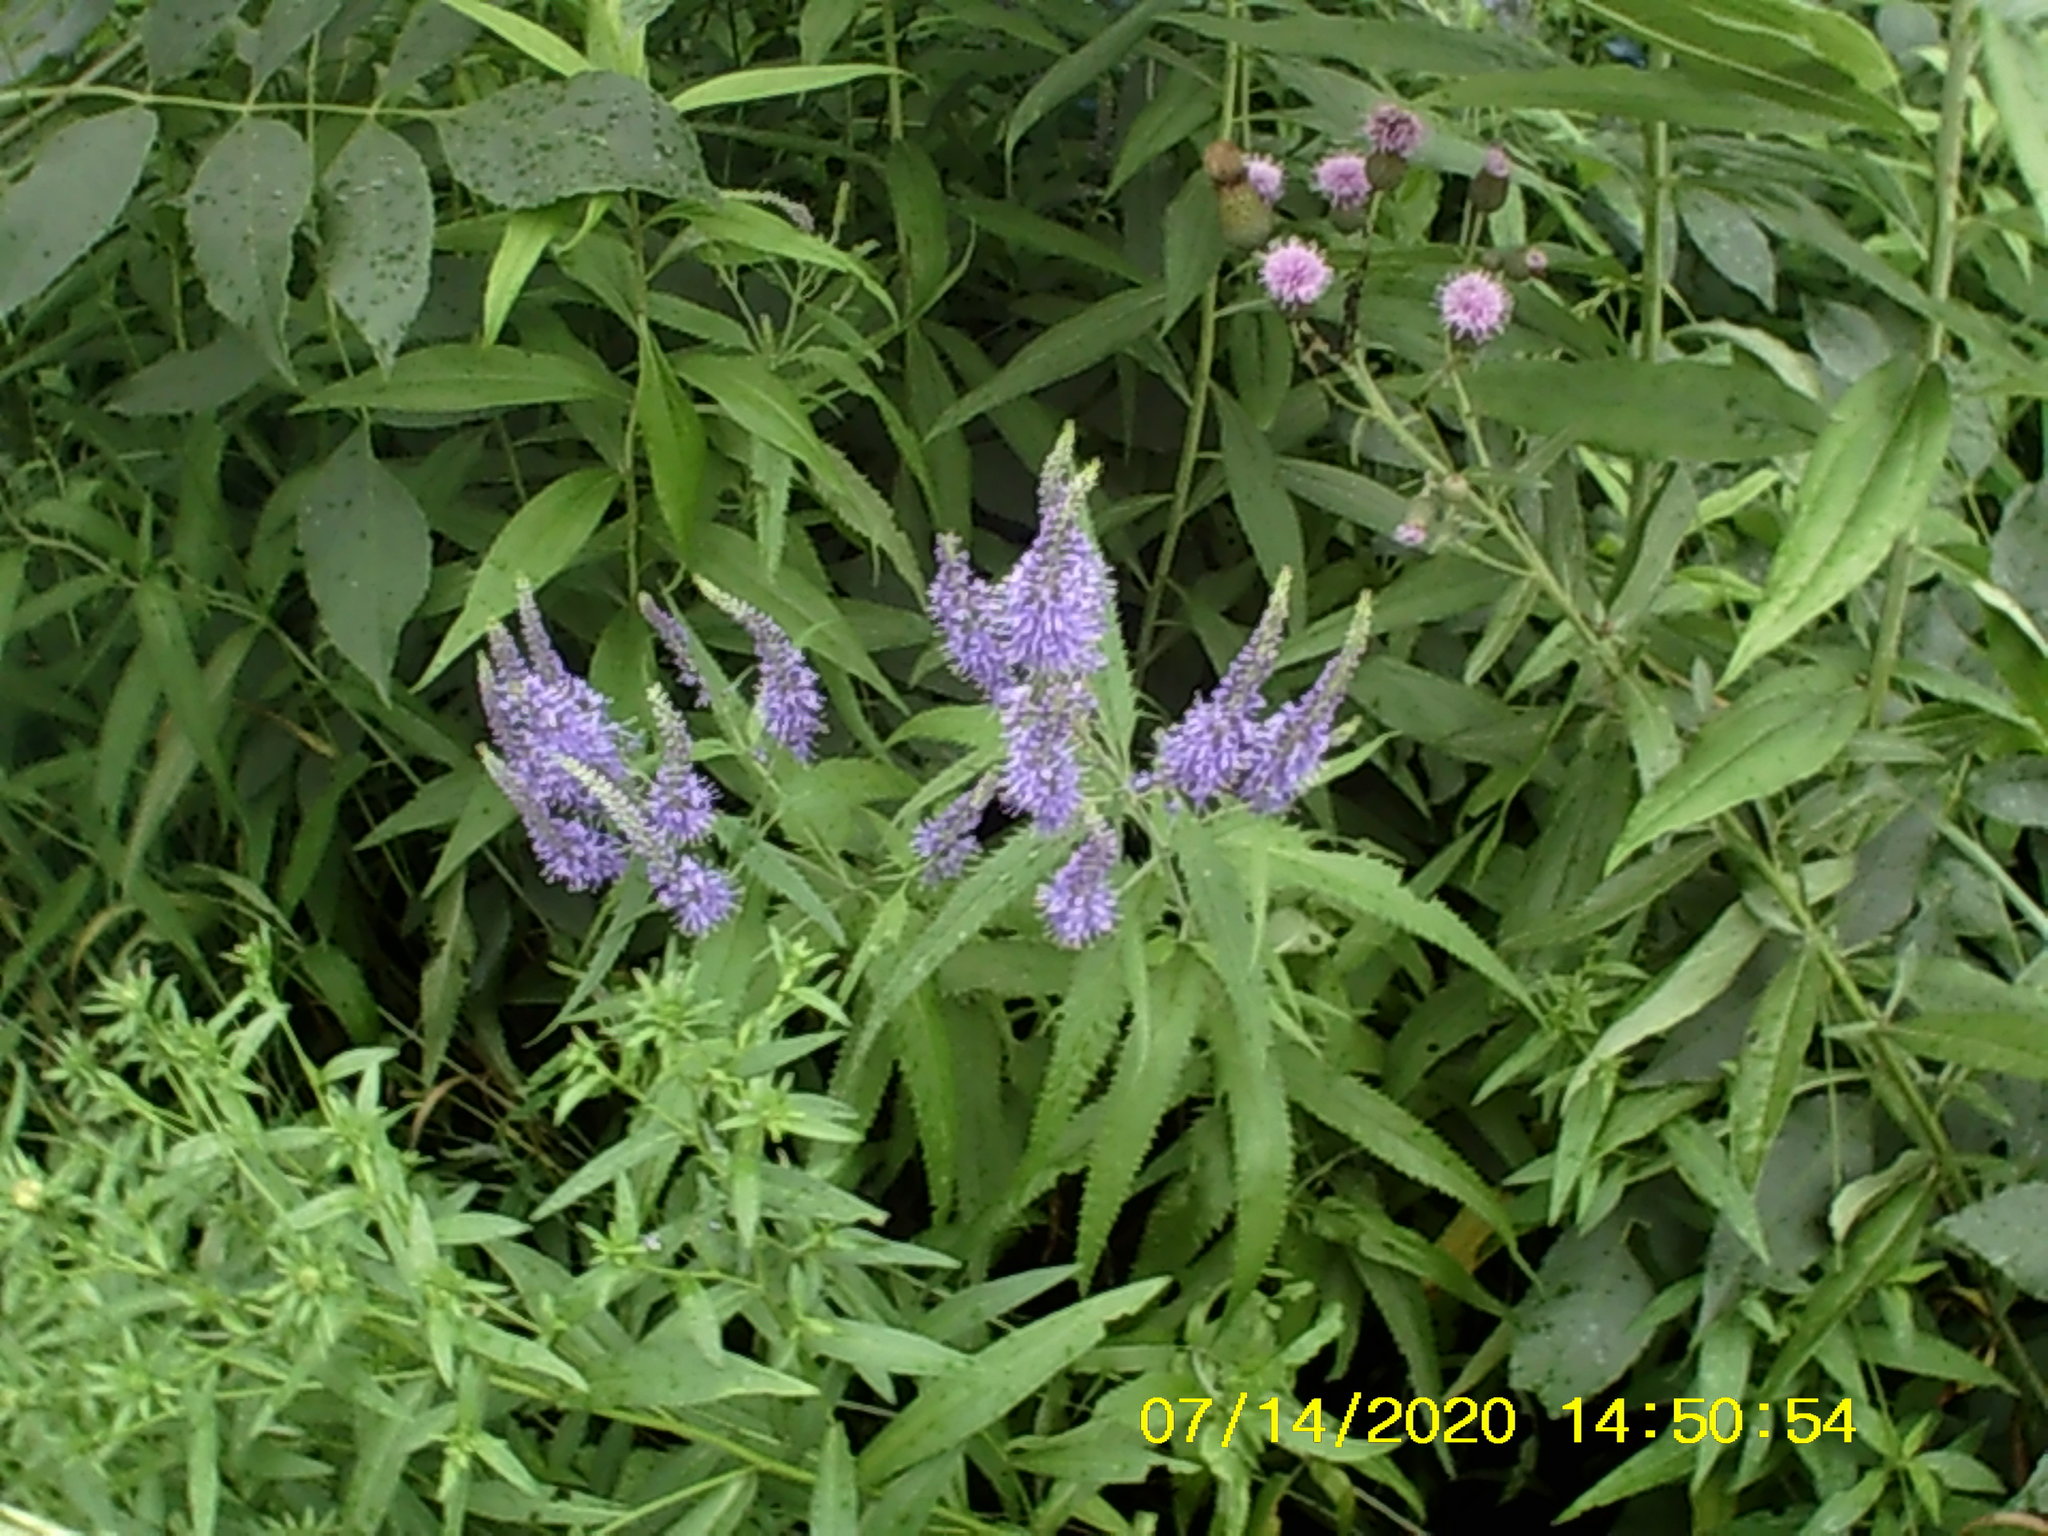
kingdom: Plantae
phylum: Tracheophyta
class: Magnoliopsida
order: Lamiales
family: Plantaginaceae
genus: Veronica
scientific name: Veronica longifolia
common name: Garden speedwell
